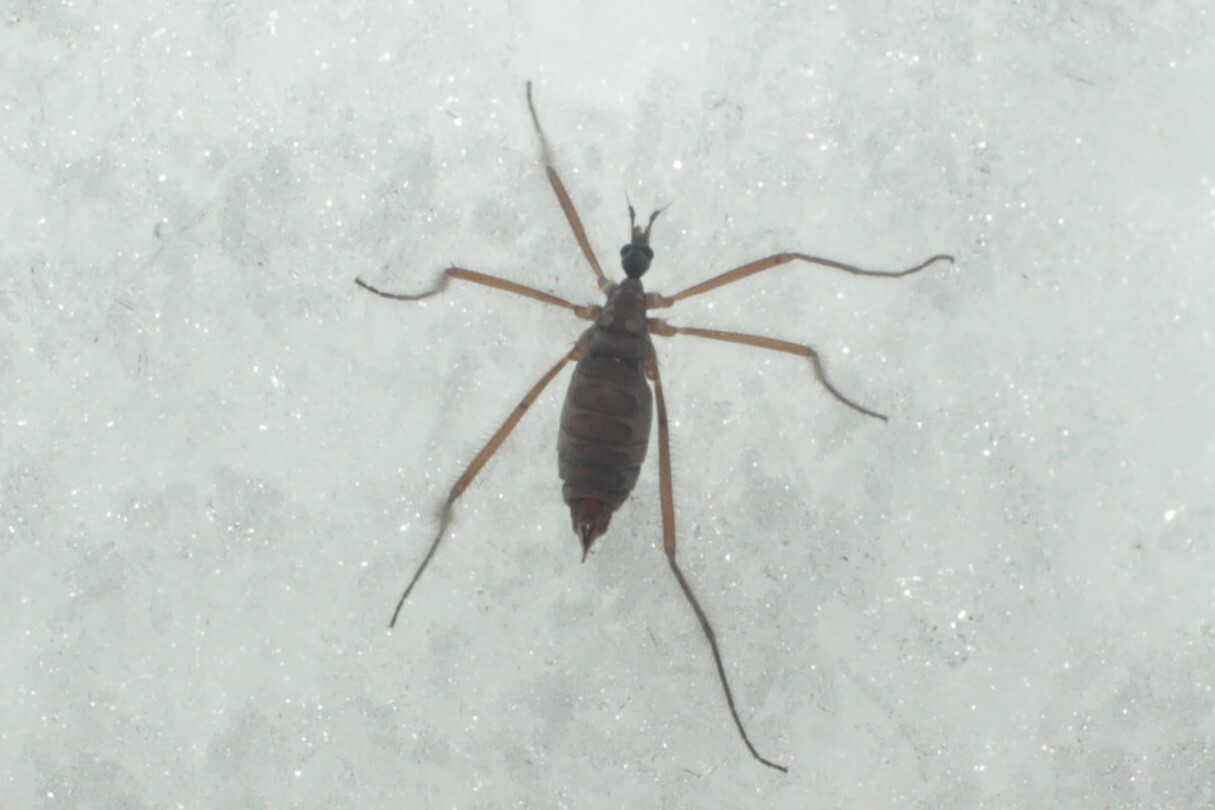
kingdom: Animalia
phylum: Arthropoda
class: Insecta
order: Diptera
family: Limoniidae
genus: Chionea
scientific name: Chionea
